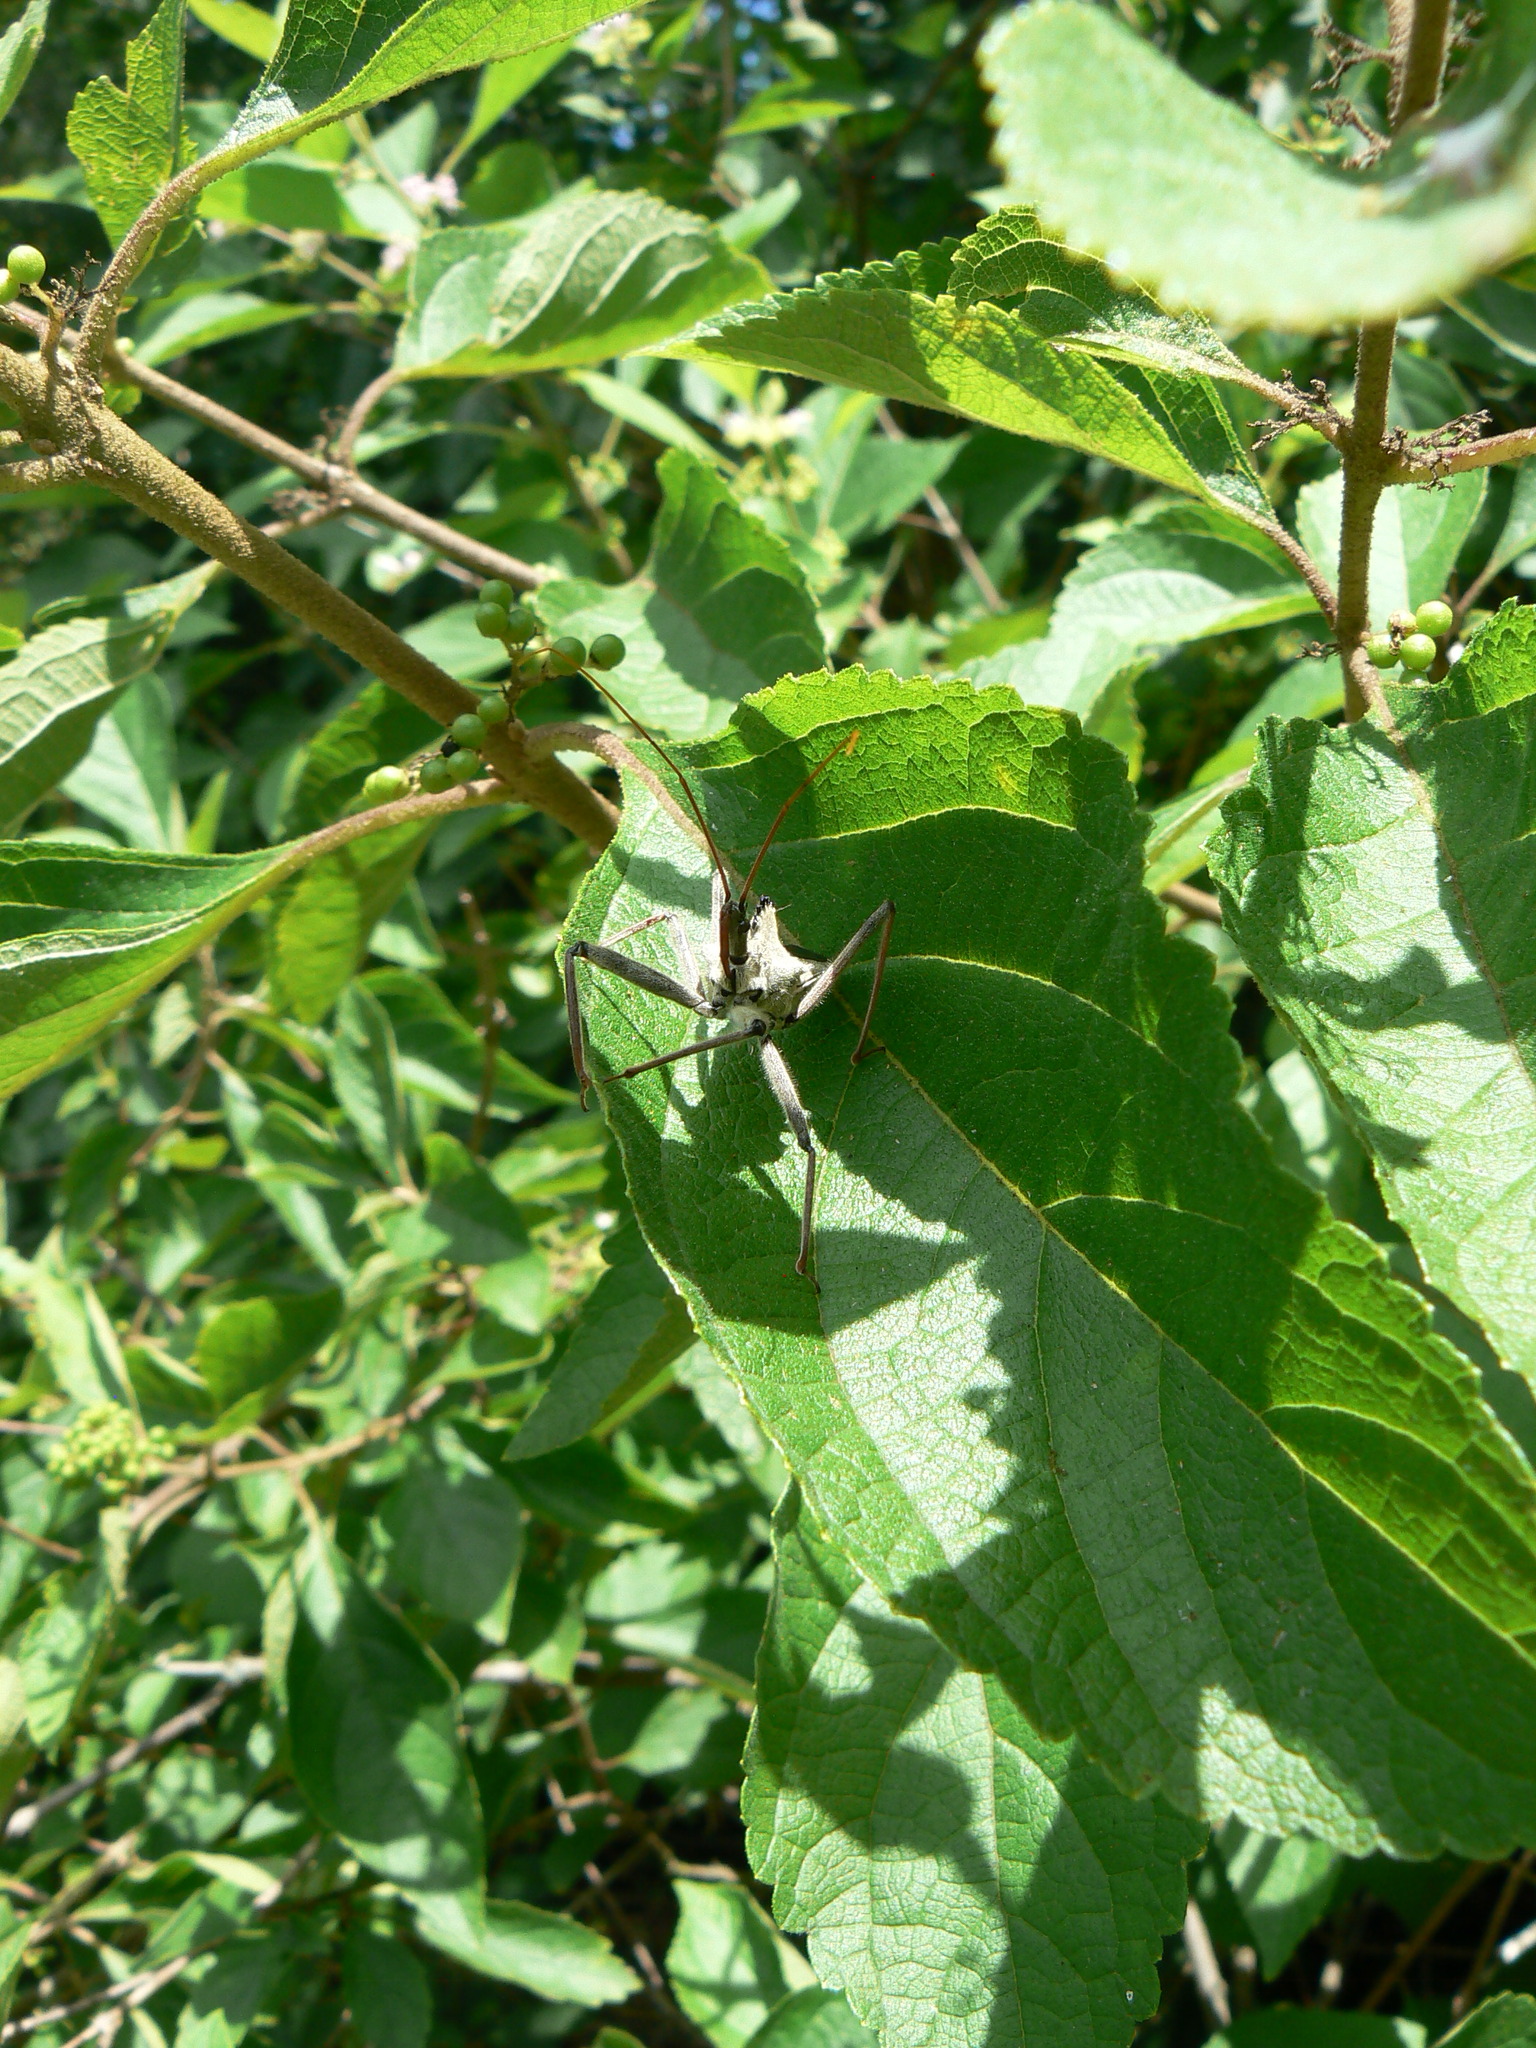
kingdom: Animalia
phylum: Arthropoda
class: Insecta
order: Hemiptera
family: Reduviidae
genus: Arilus
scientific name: Arilus cristatus
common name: North american wheel bug
